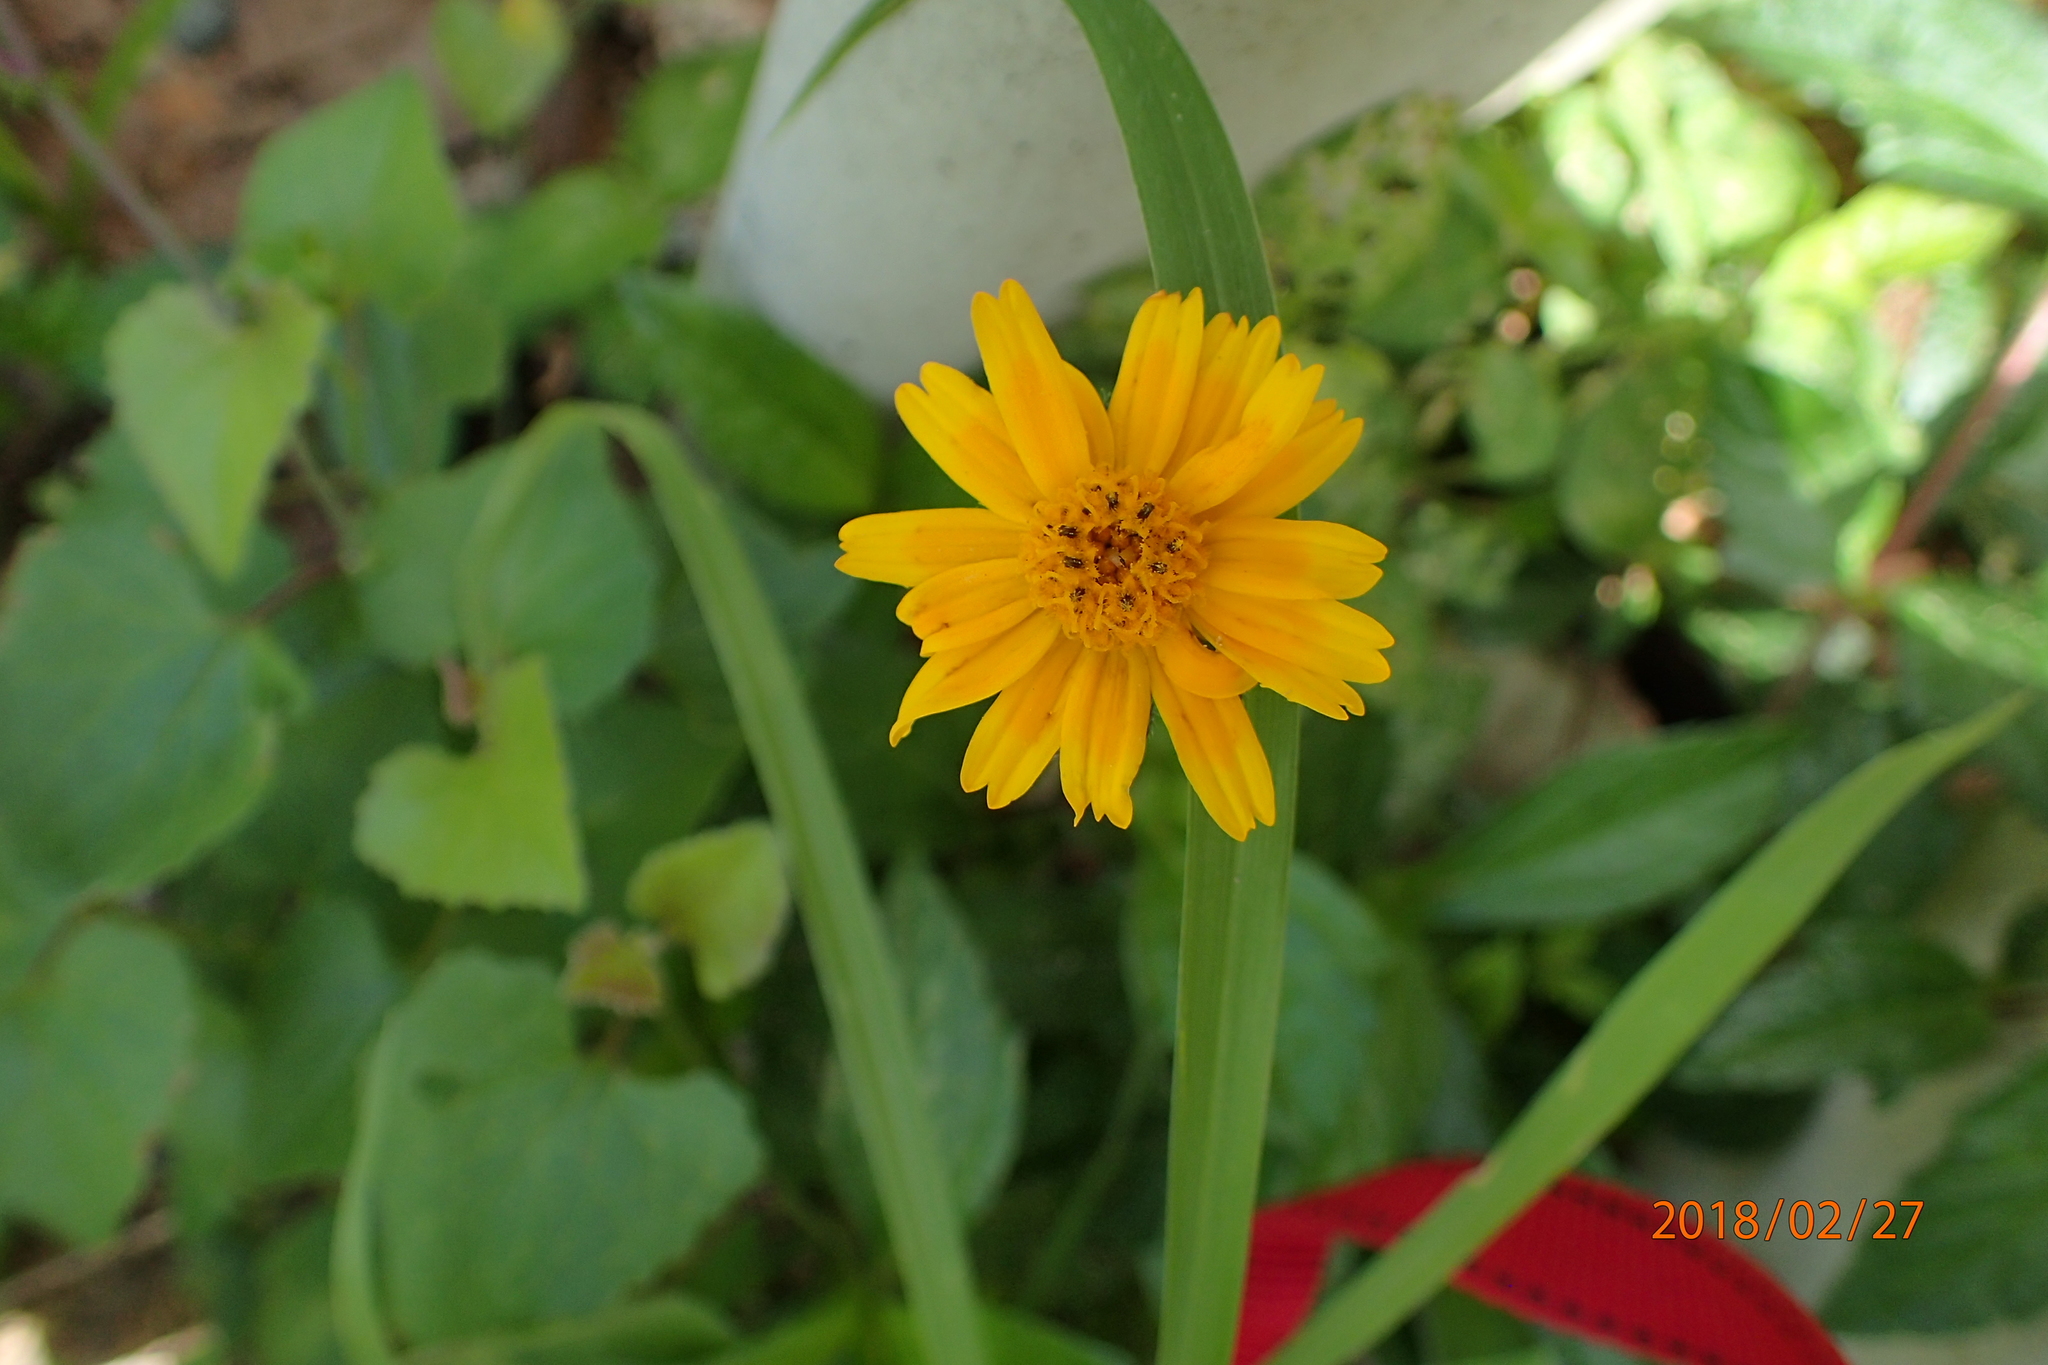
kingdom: Plantae
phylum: Tracheophyta
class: Magnoliopsida
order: Asterales
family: Asteraceae
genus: Sphagneticola
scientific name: Sphagneticola trilobata
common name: Bay biscayne creeping-oxeye
